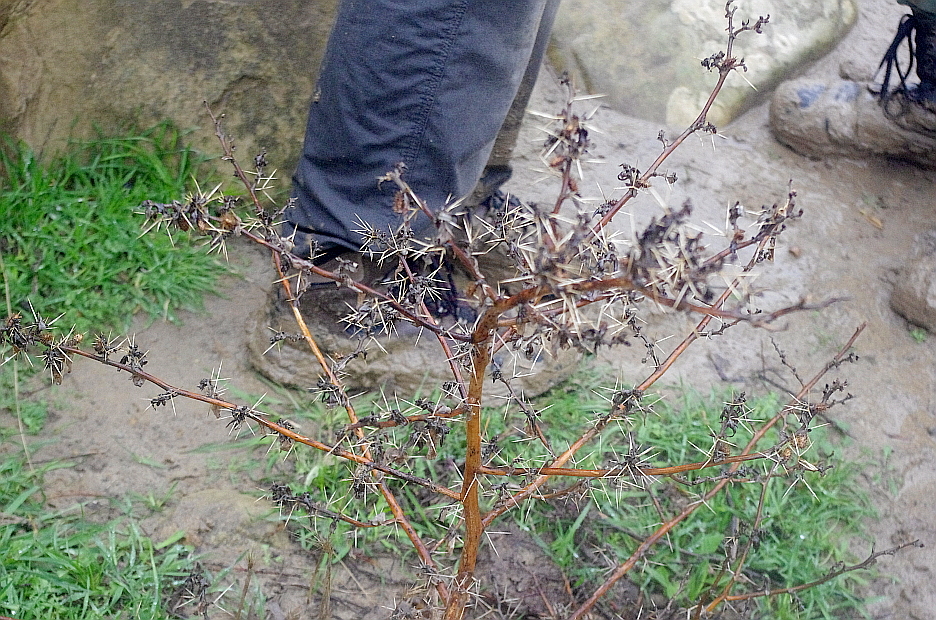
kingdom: Plantae
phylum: Tracheophyta
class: Magnoliopsida
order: Asterales
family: Asteraceae
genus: Xanthium
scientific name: Xanthium spinosum
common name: Spiny cocklebur
